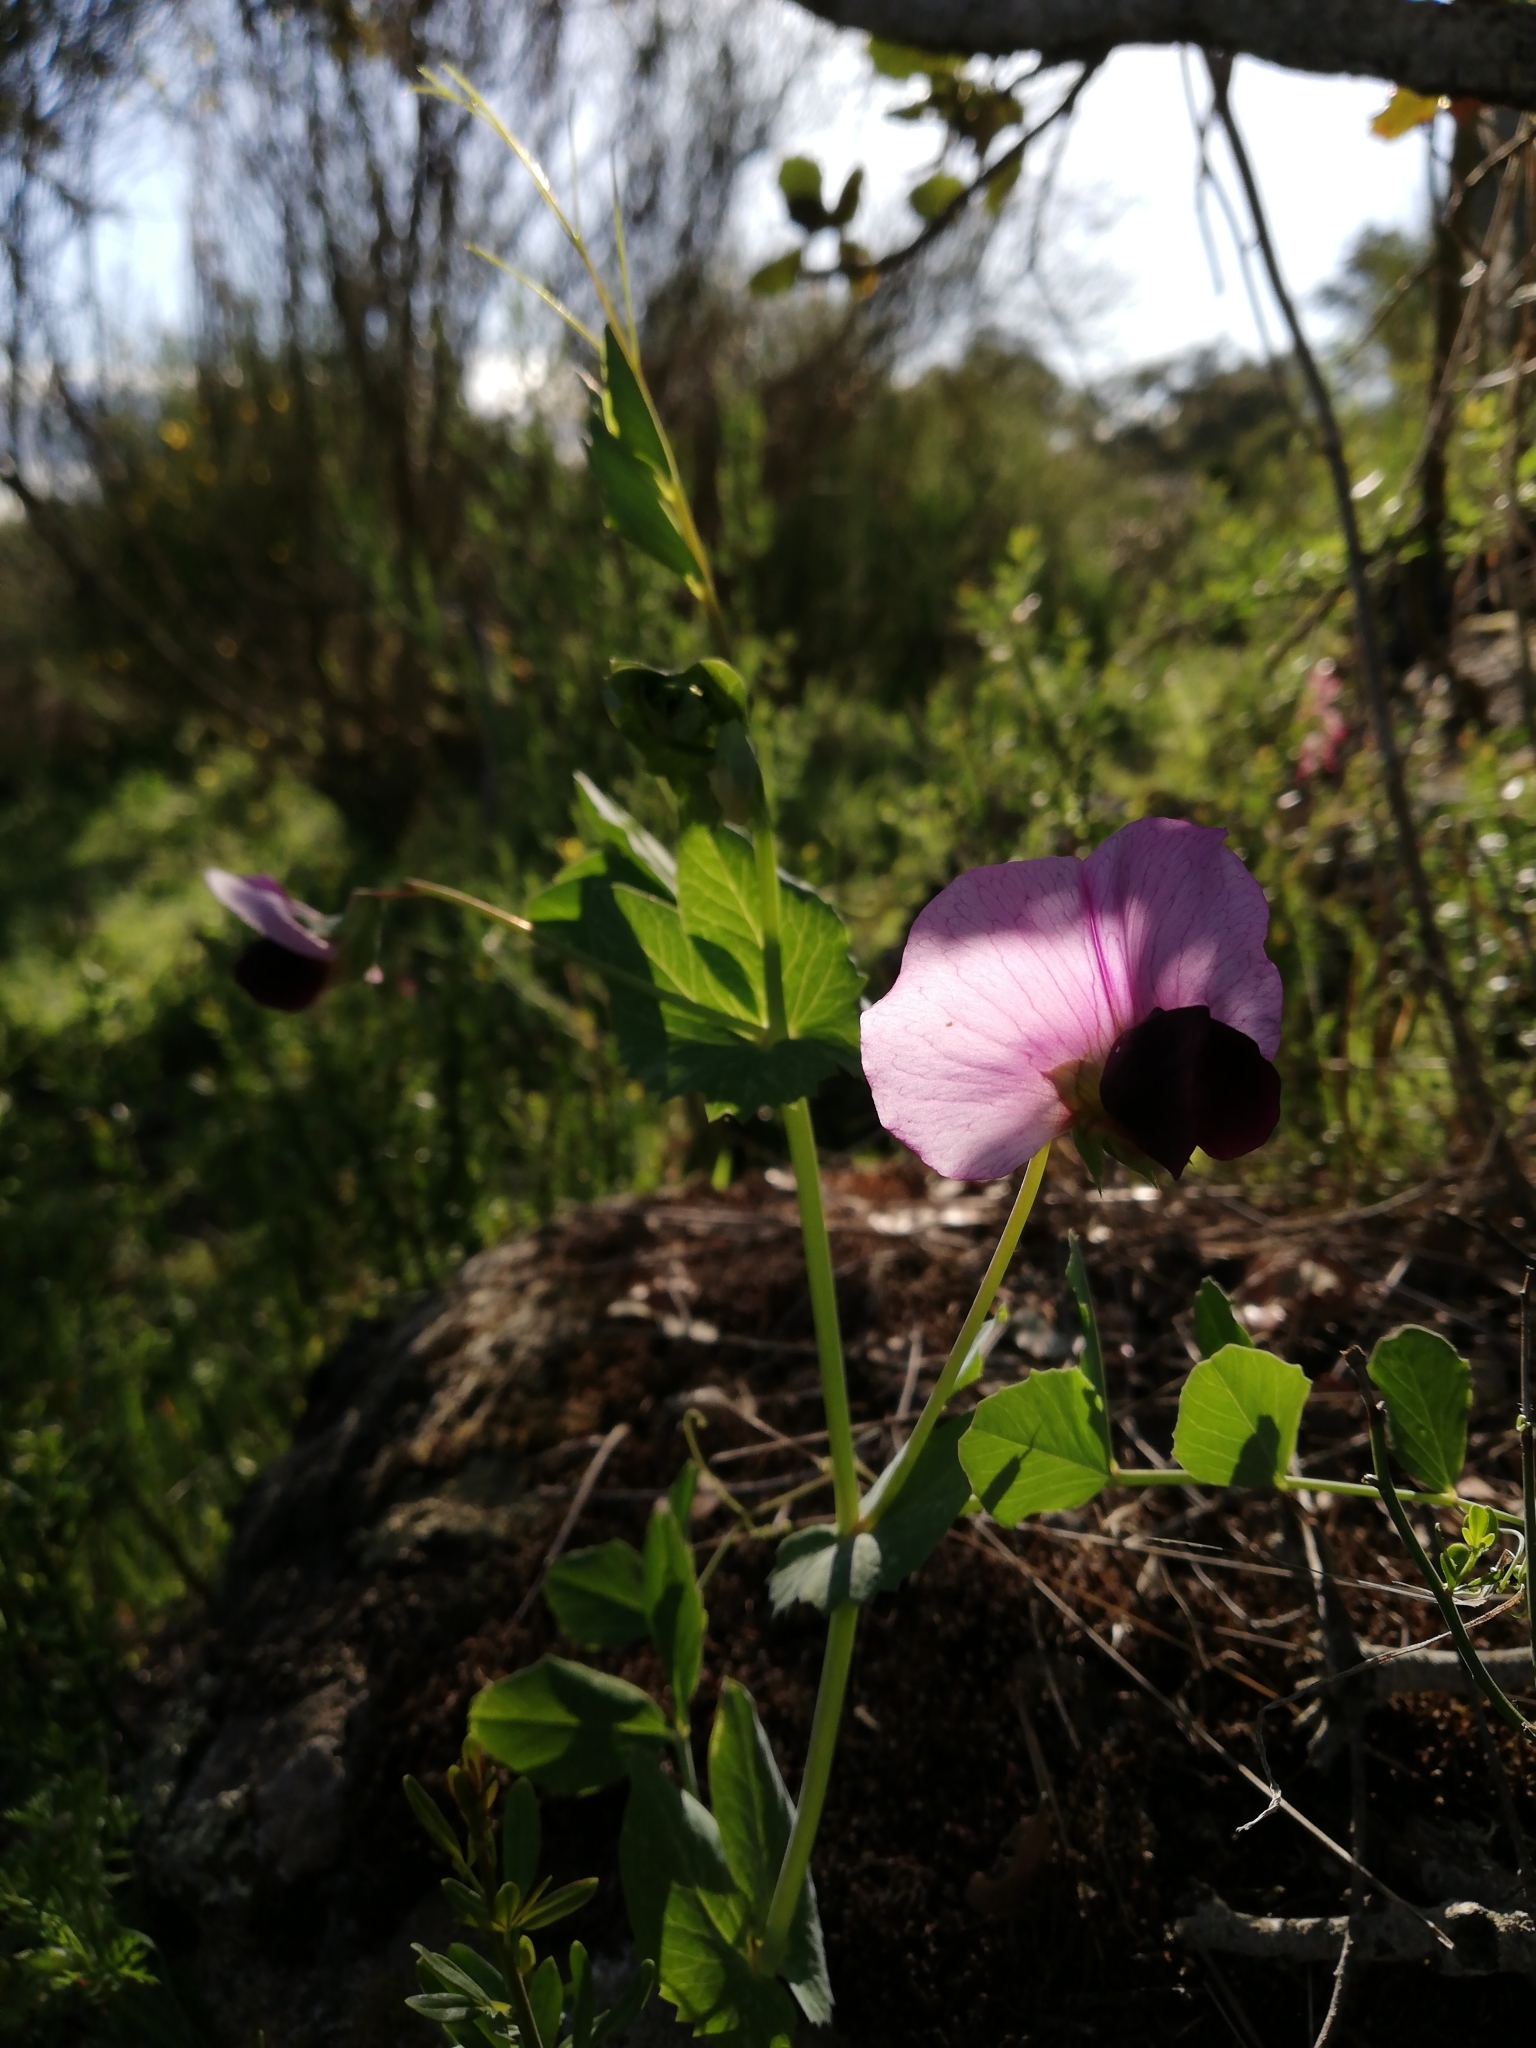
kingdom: Plantae
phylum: Tracheophyta
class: Magnoliopsida
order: Fabales
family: Fabaceae
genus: Lathyrus
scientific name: Lathyrus oleraceus
